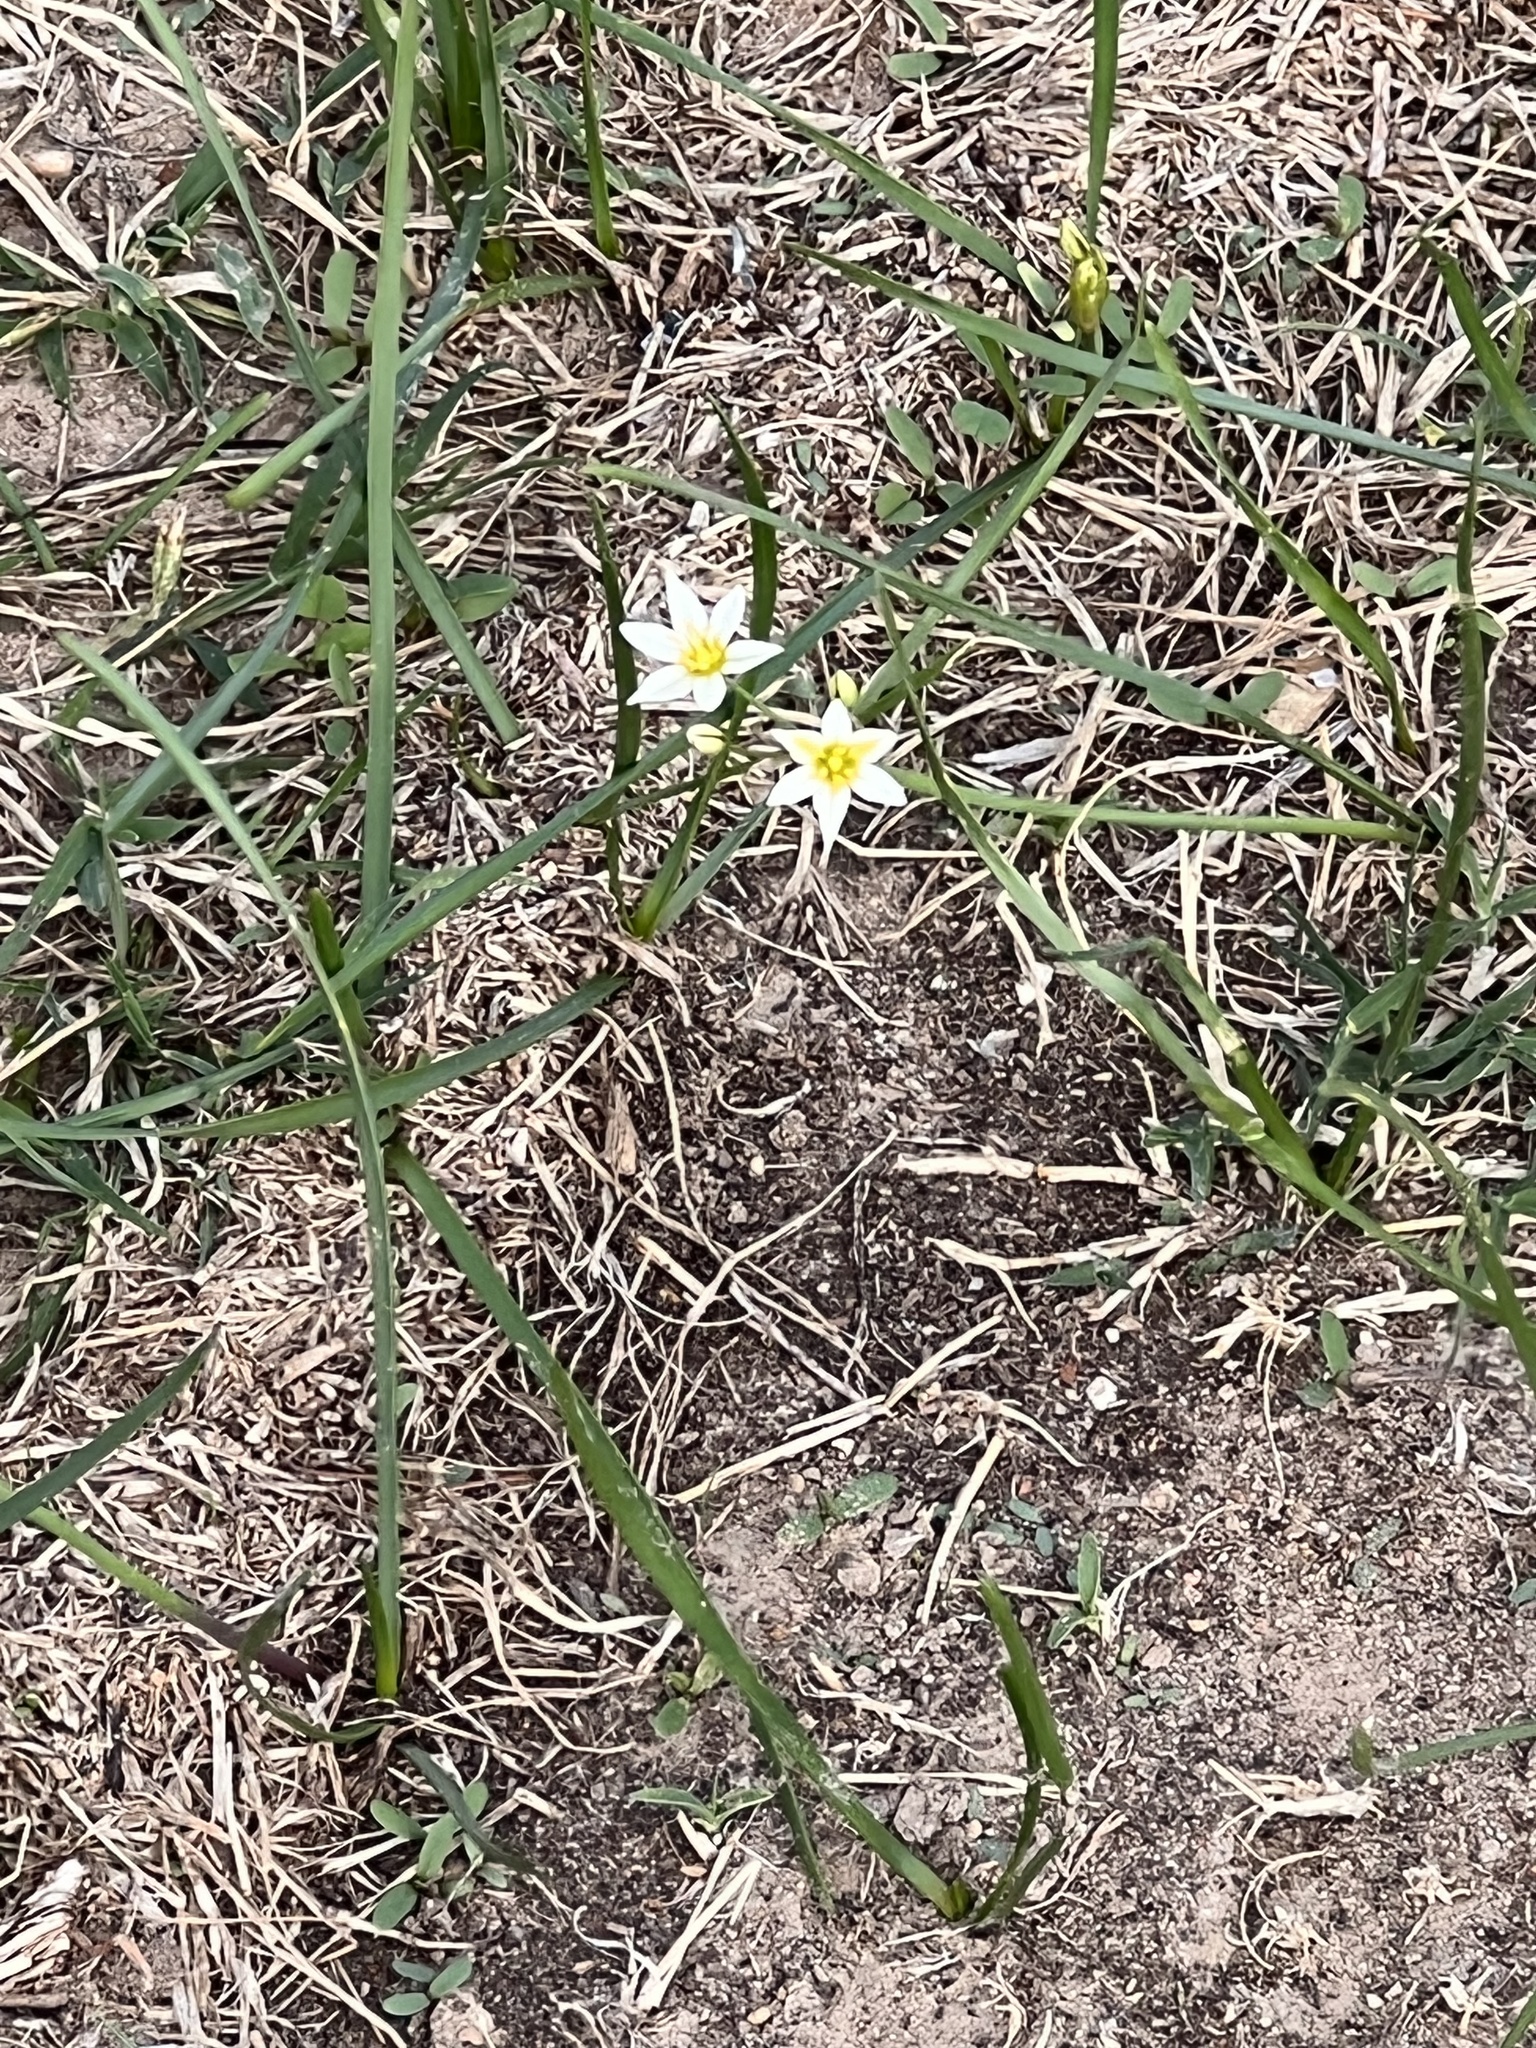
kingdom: Plantae
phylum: Tracheophyta
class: Liliopsida
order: Asparagales
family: Amaryllidaceae
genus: Nothoscordum
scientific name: Nothoscordum bivalve
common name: Crow-poison
